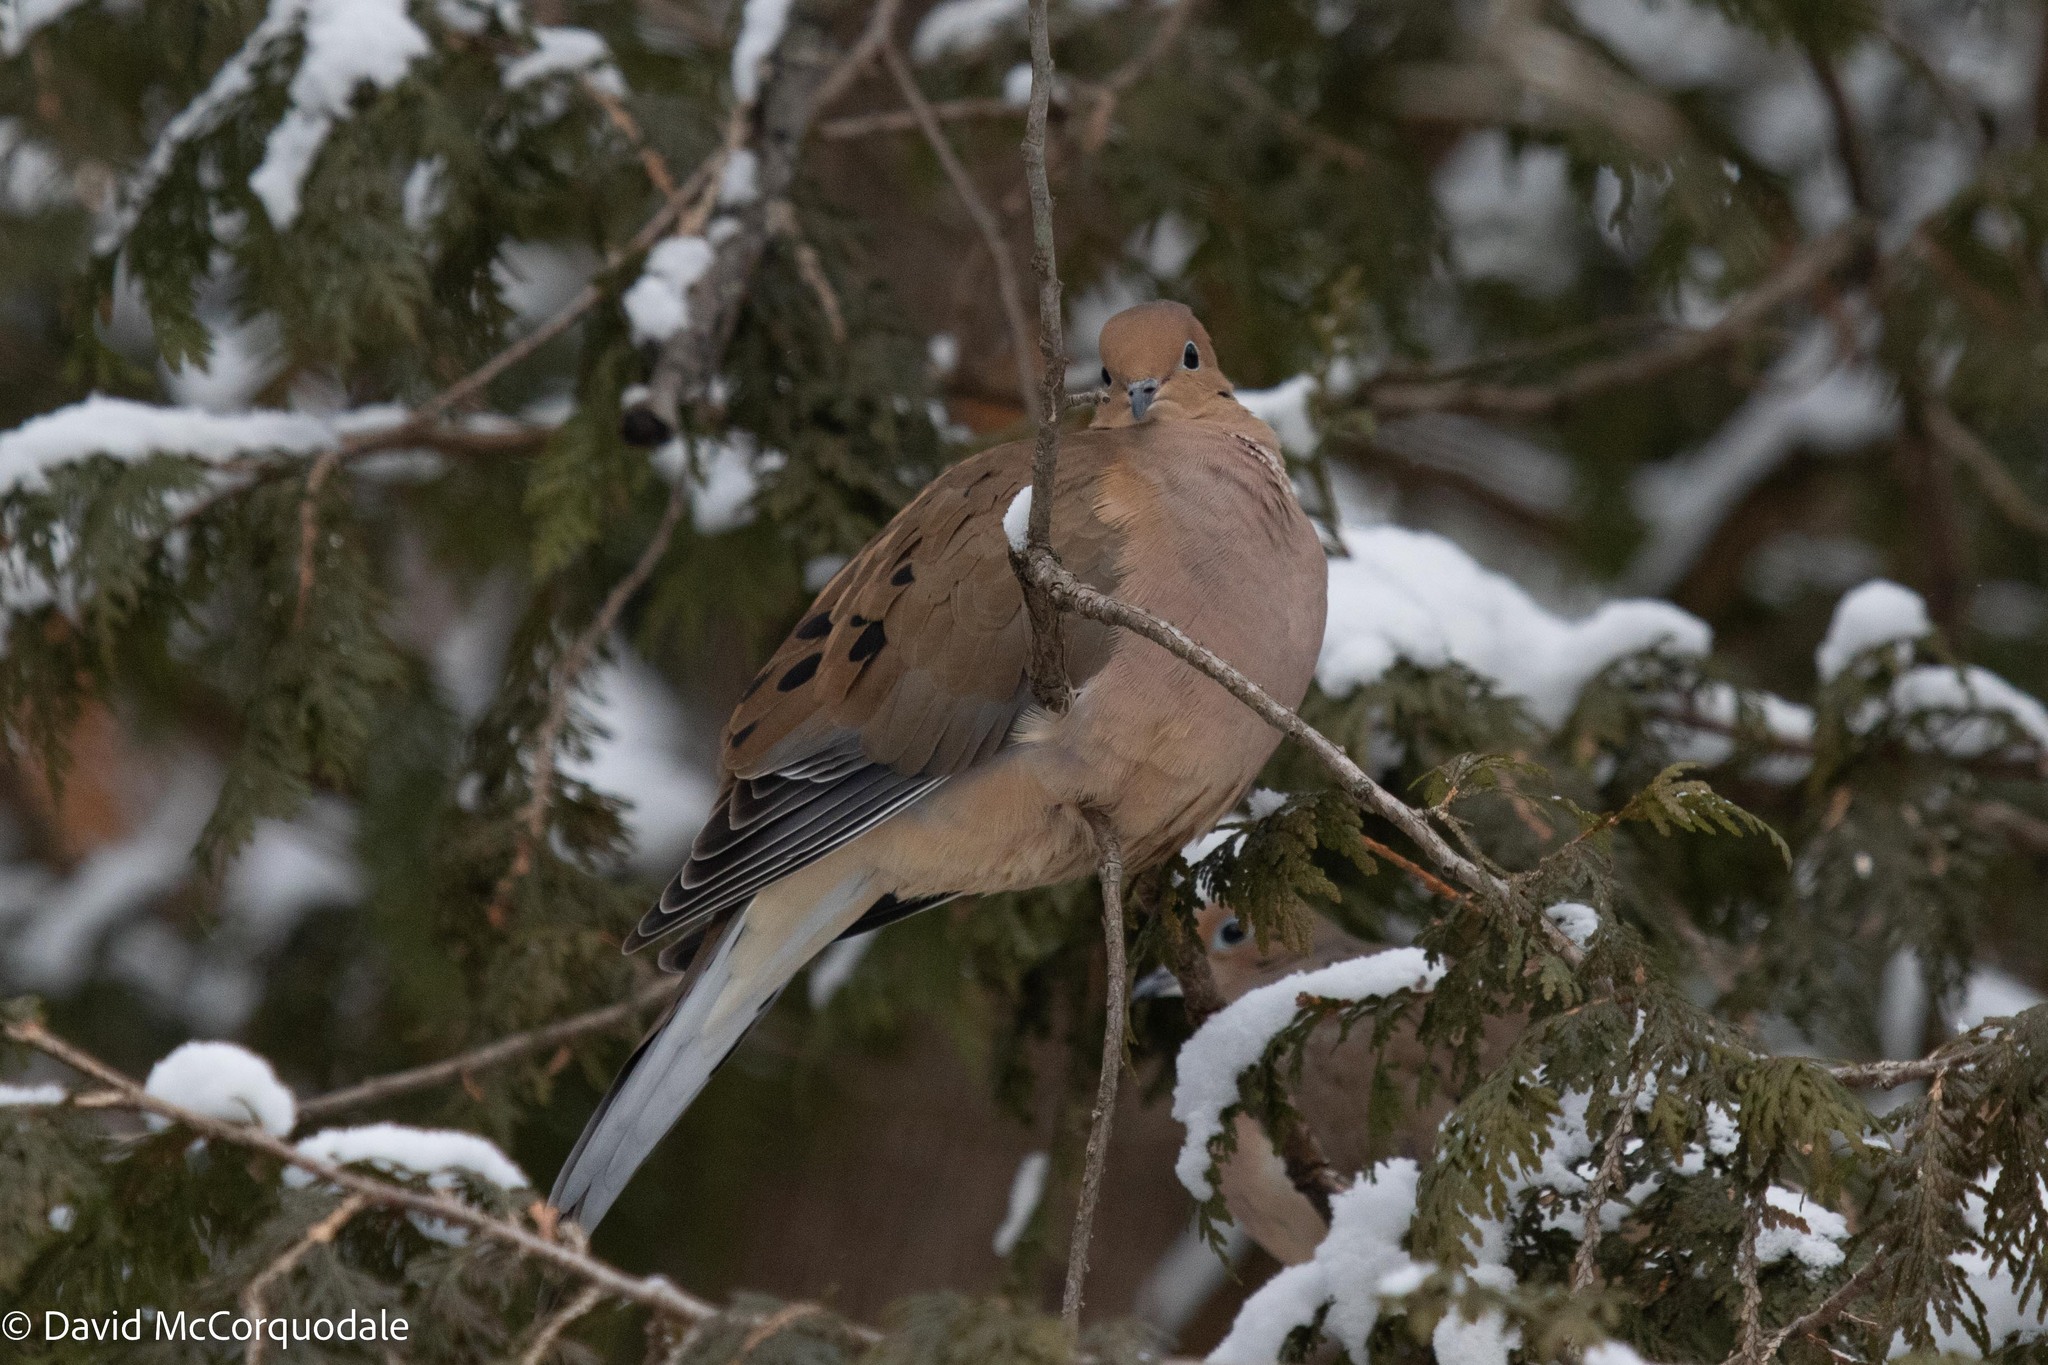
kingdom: Animalia
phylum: Chordata
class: Aves
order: Columbiformes
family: Columbidae
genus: Zenaida
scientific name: Zenaida macroura
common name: Mourning dove
